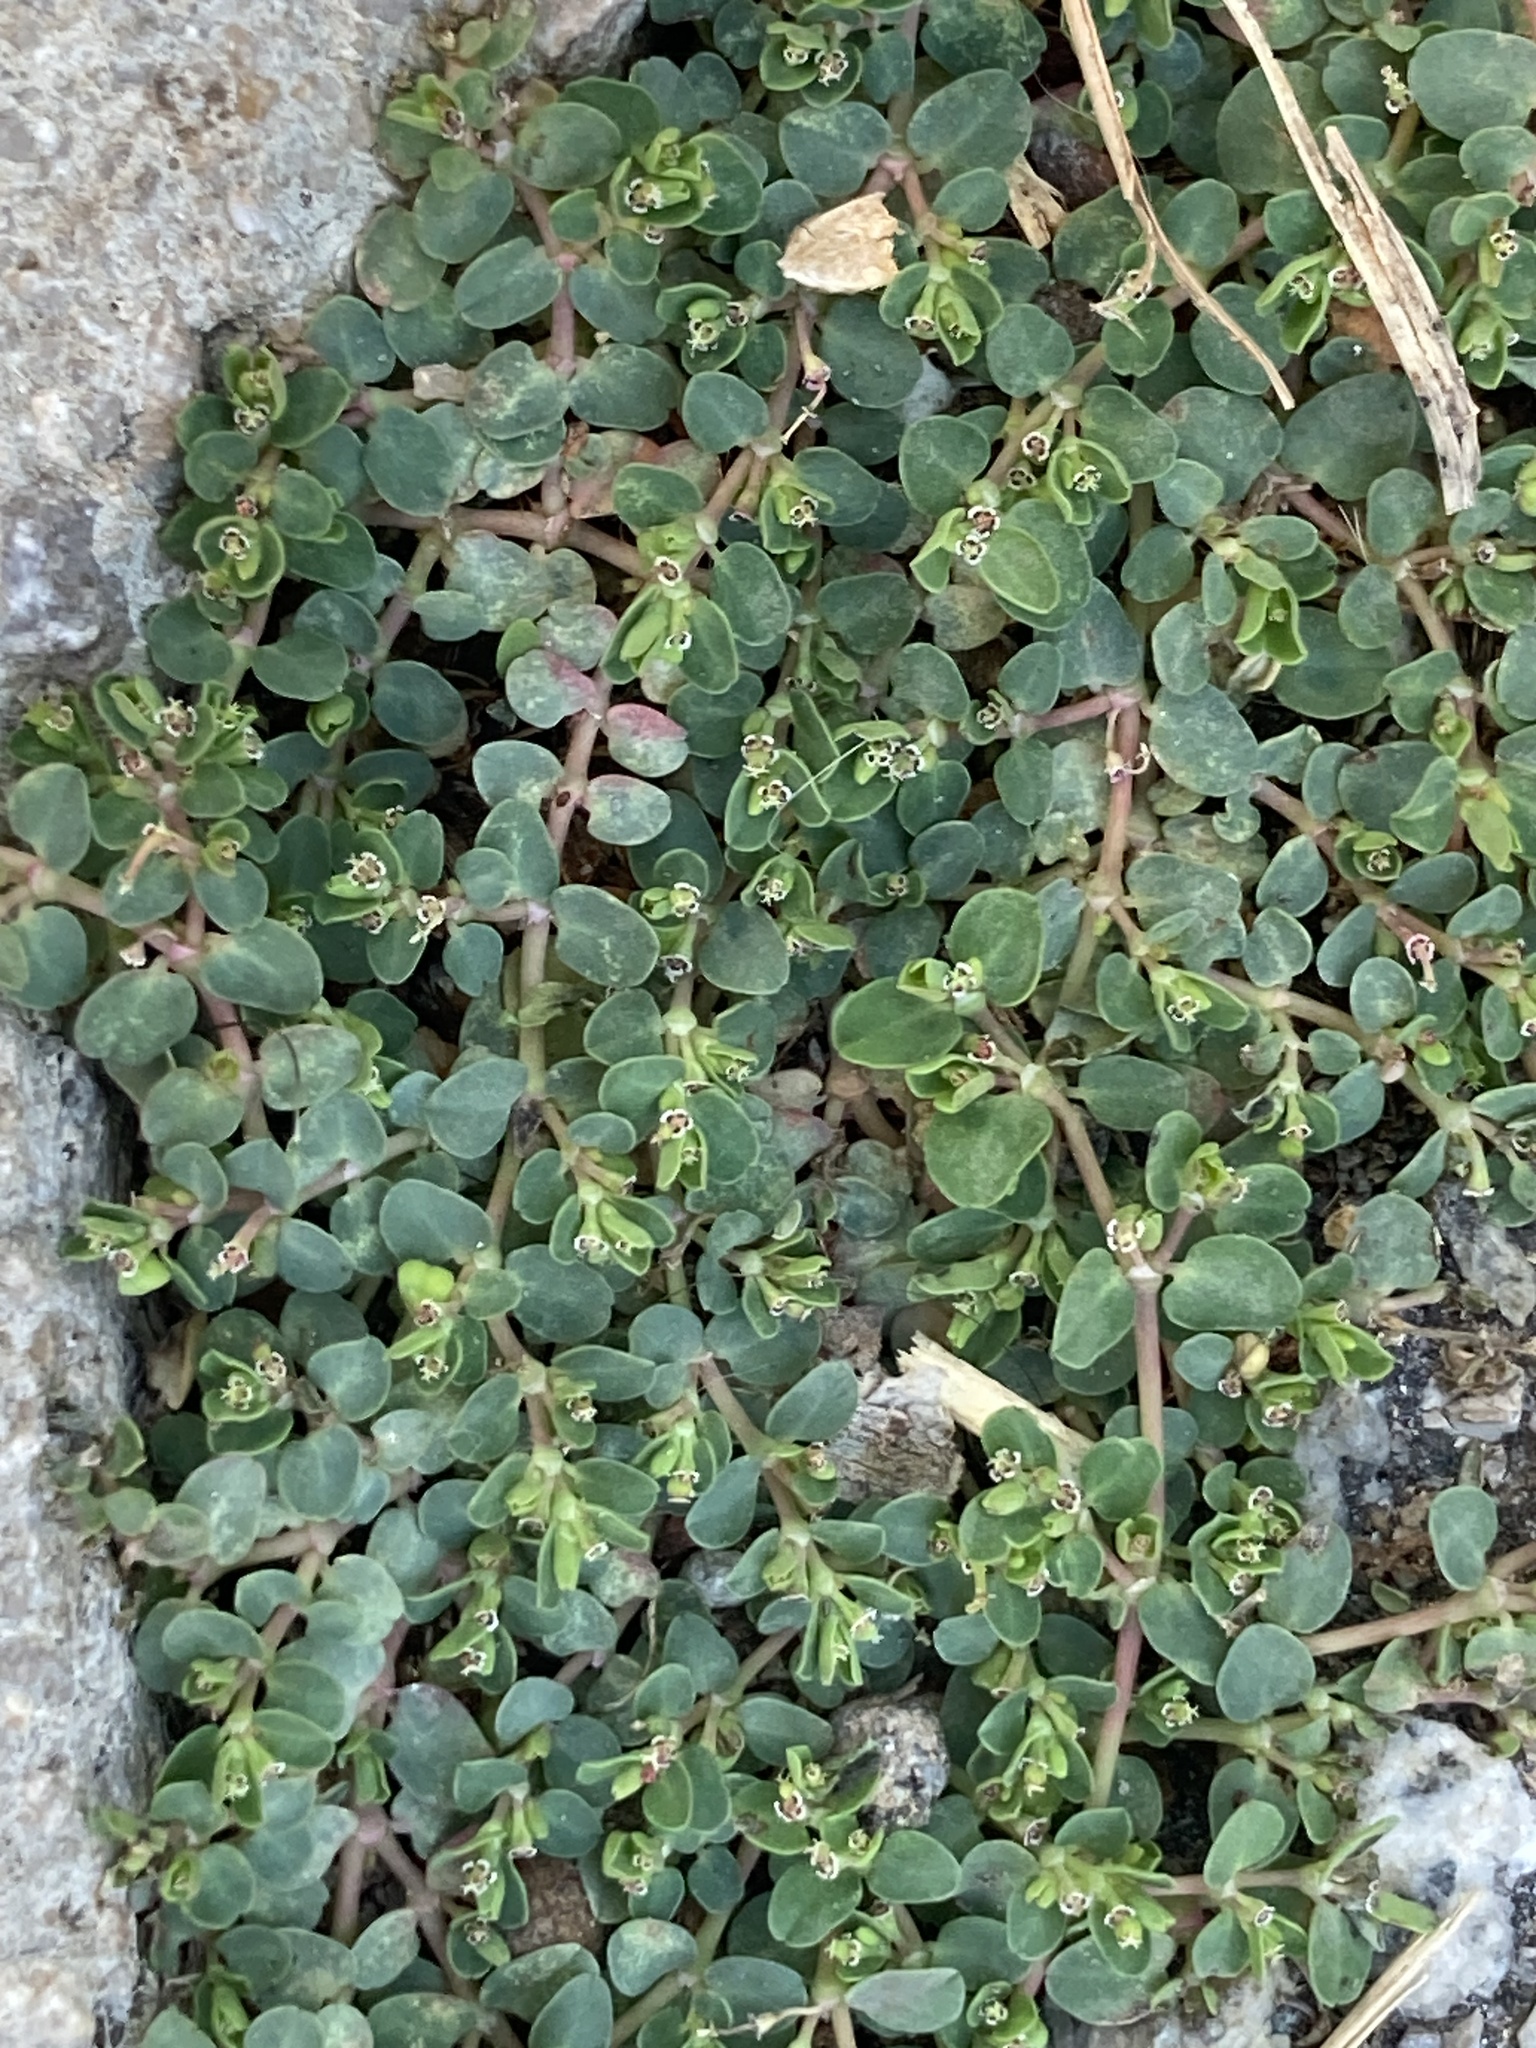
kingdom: Plantae
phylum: Tracheophyta
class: Magnoliopsida
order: Malpighiales
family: Euphorbiaceae
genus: Euphorbia
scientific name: Euphorbia serpens
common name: Matted sandmat
